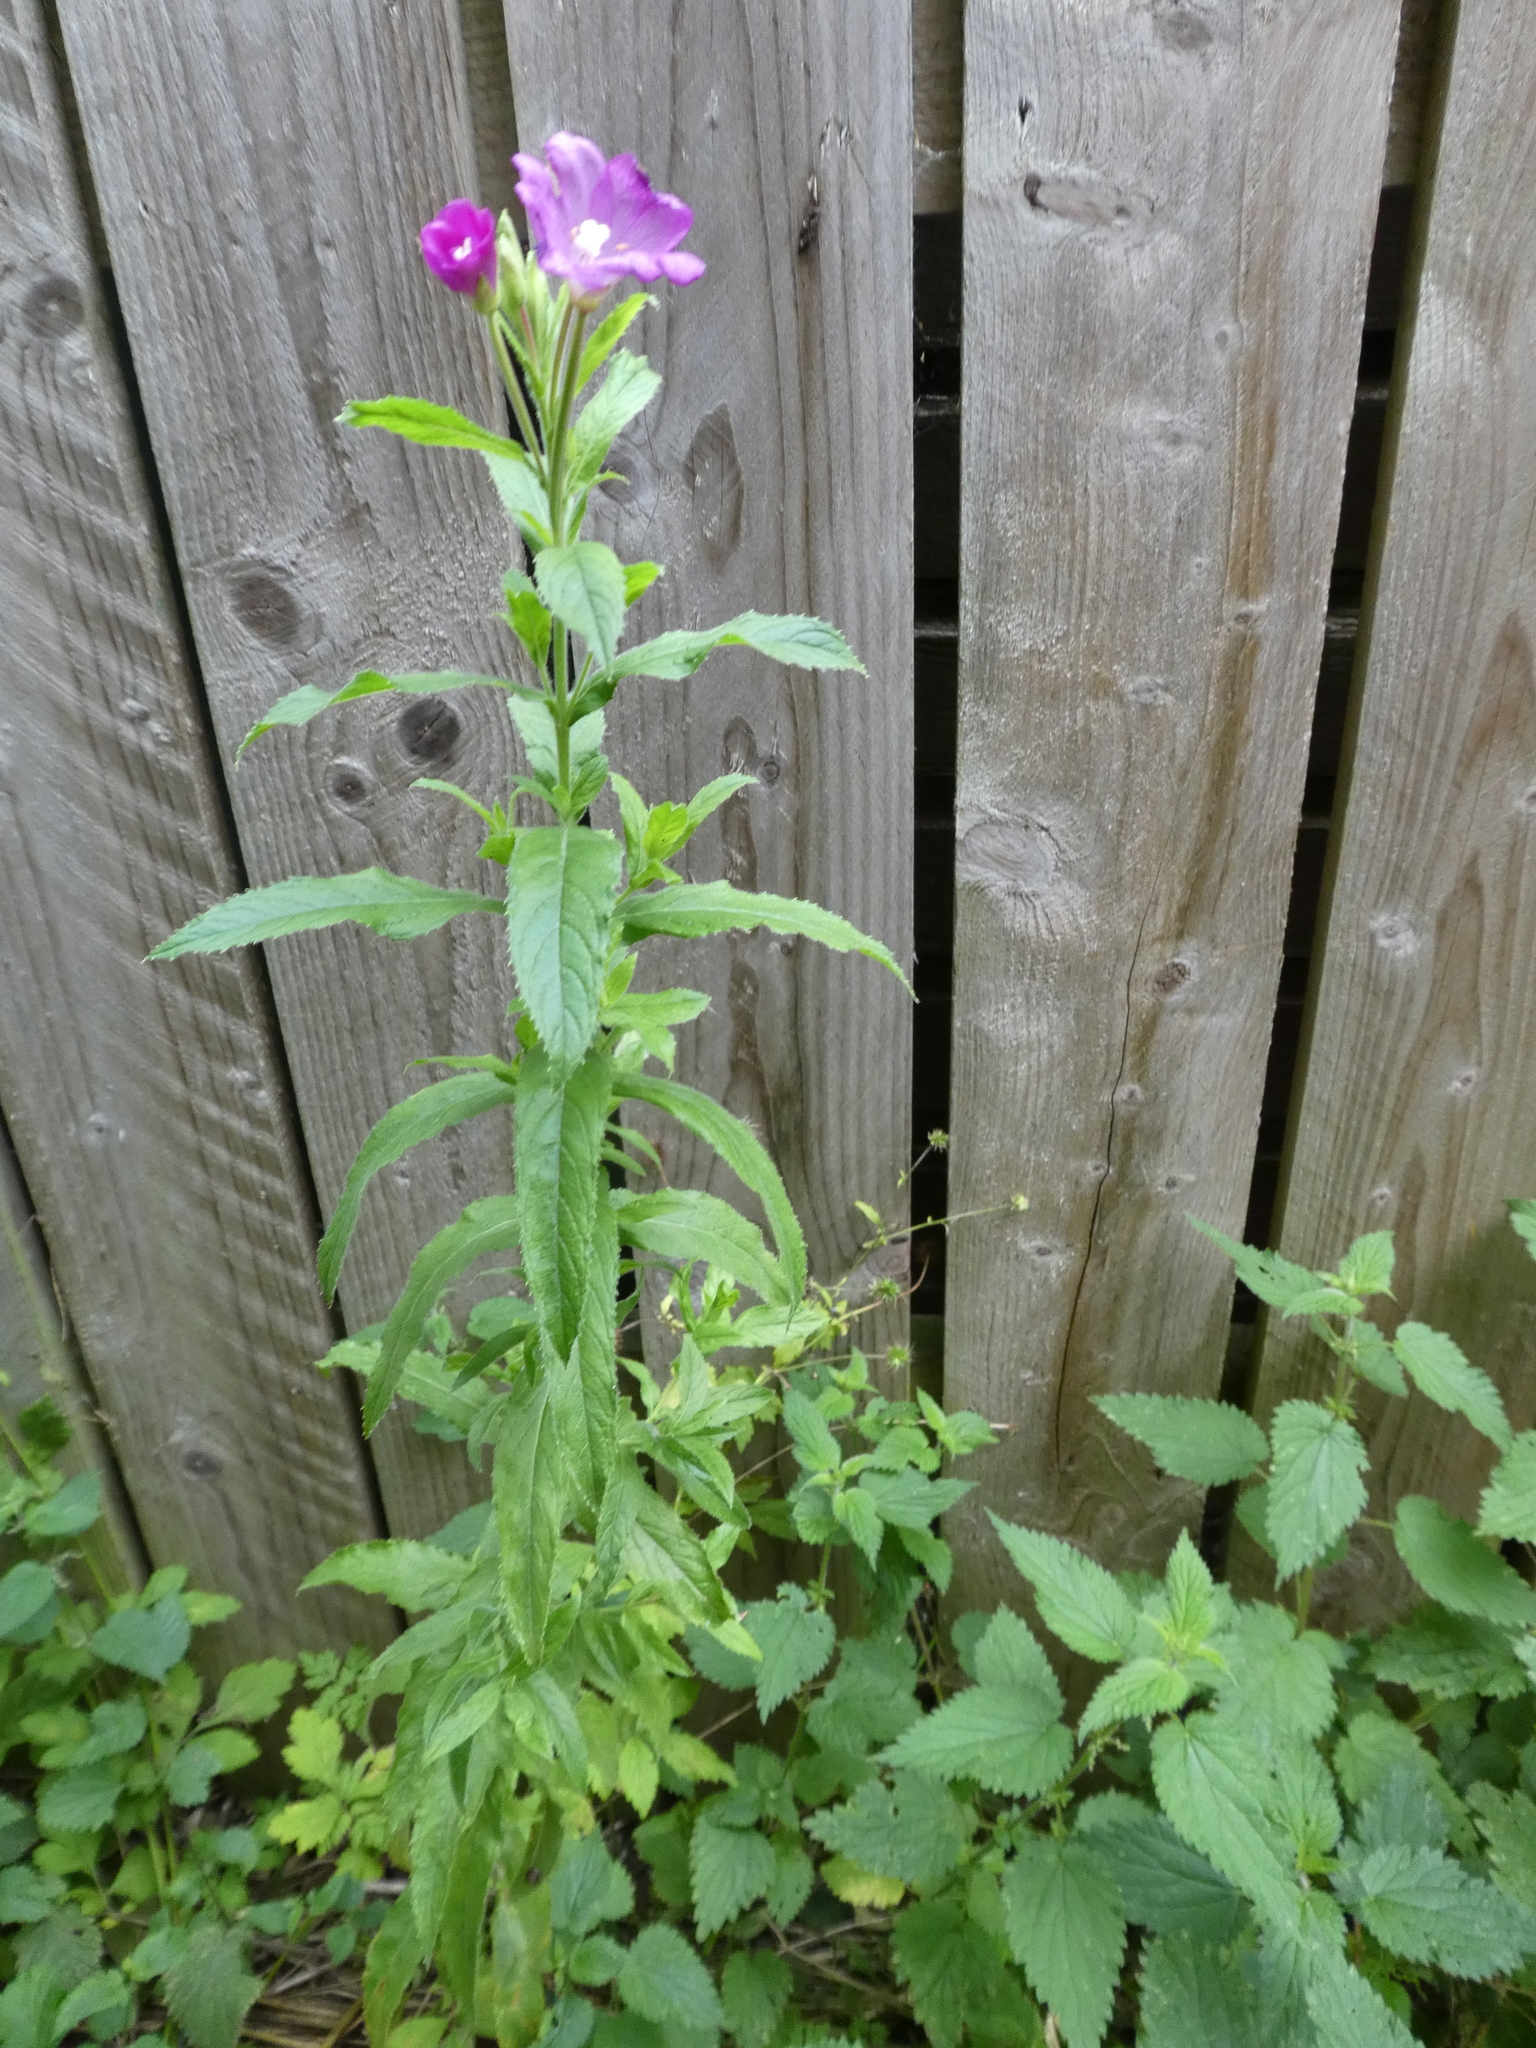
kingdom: Plantae
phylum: Tracheophyta
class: Magnoliopsida
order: Myrtales
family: Onagraceae
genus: Epilobium
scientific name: Epilobium hirsutum
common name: Great willowherb
